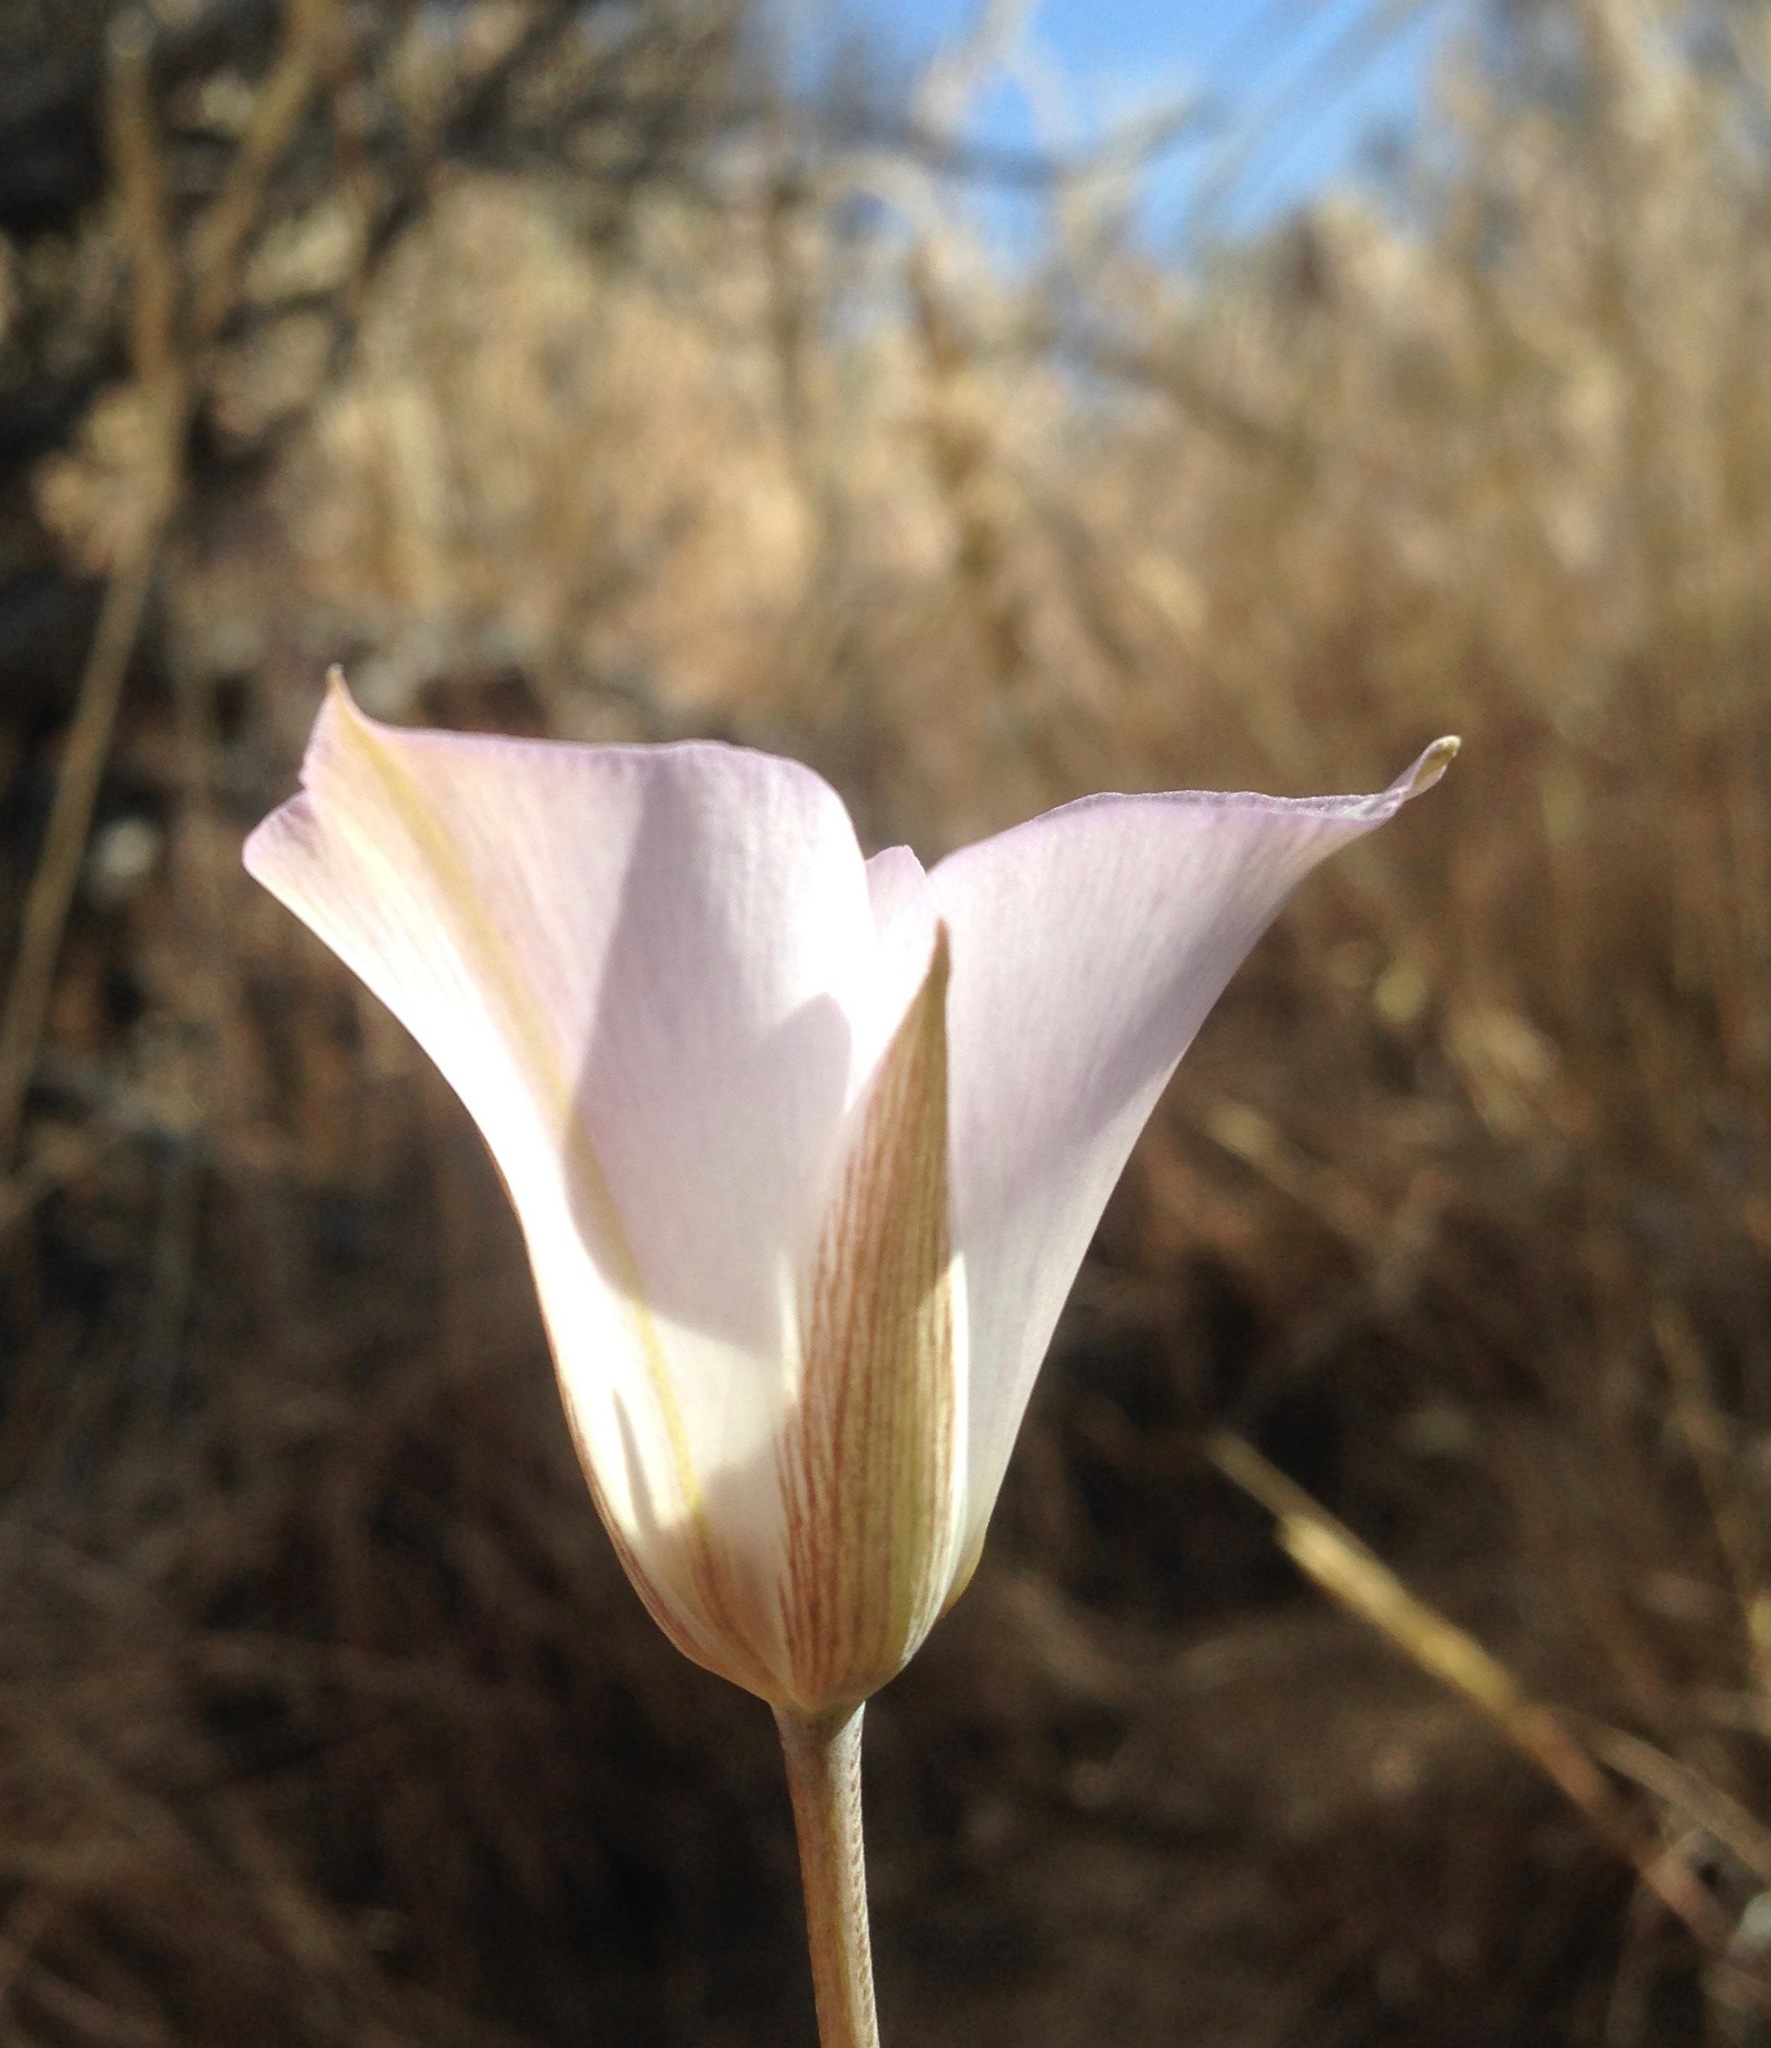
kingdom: Plantae
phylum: Tracheophyta
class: Liliopsida
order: Liliales
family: Liliaceae
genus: Calochortus
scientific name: Calochortus invenustus
